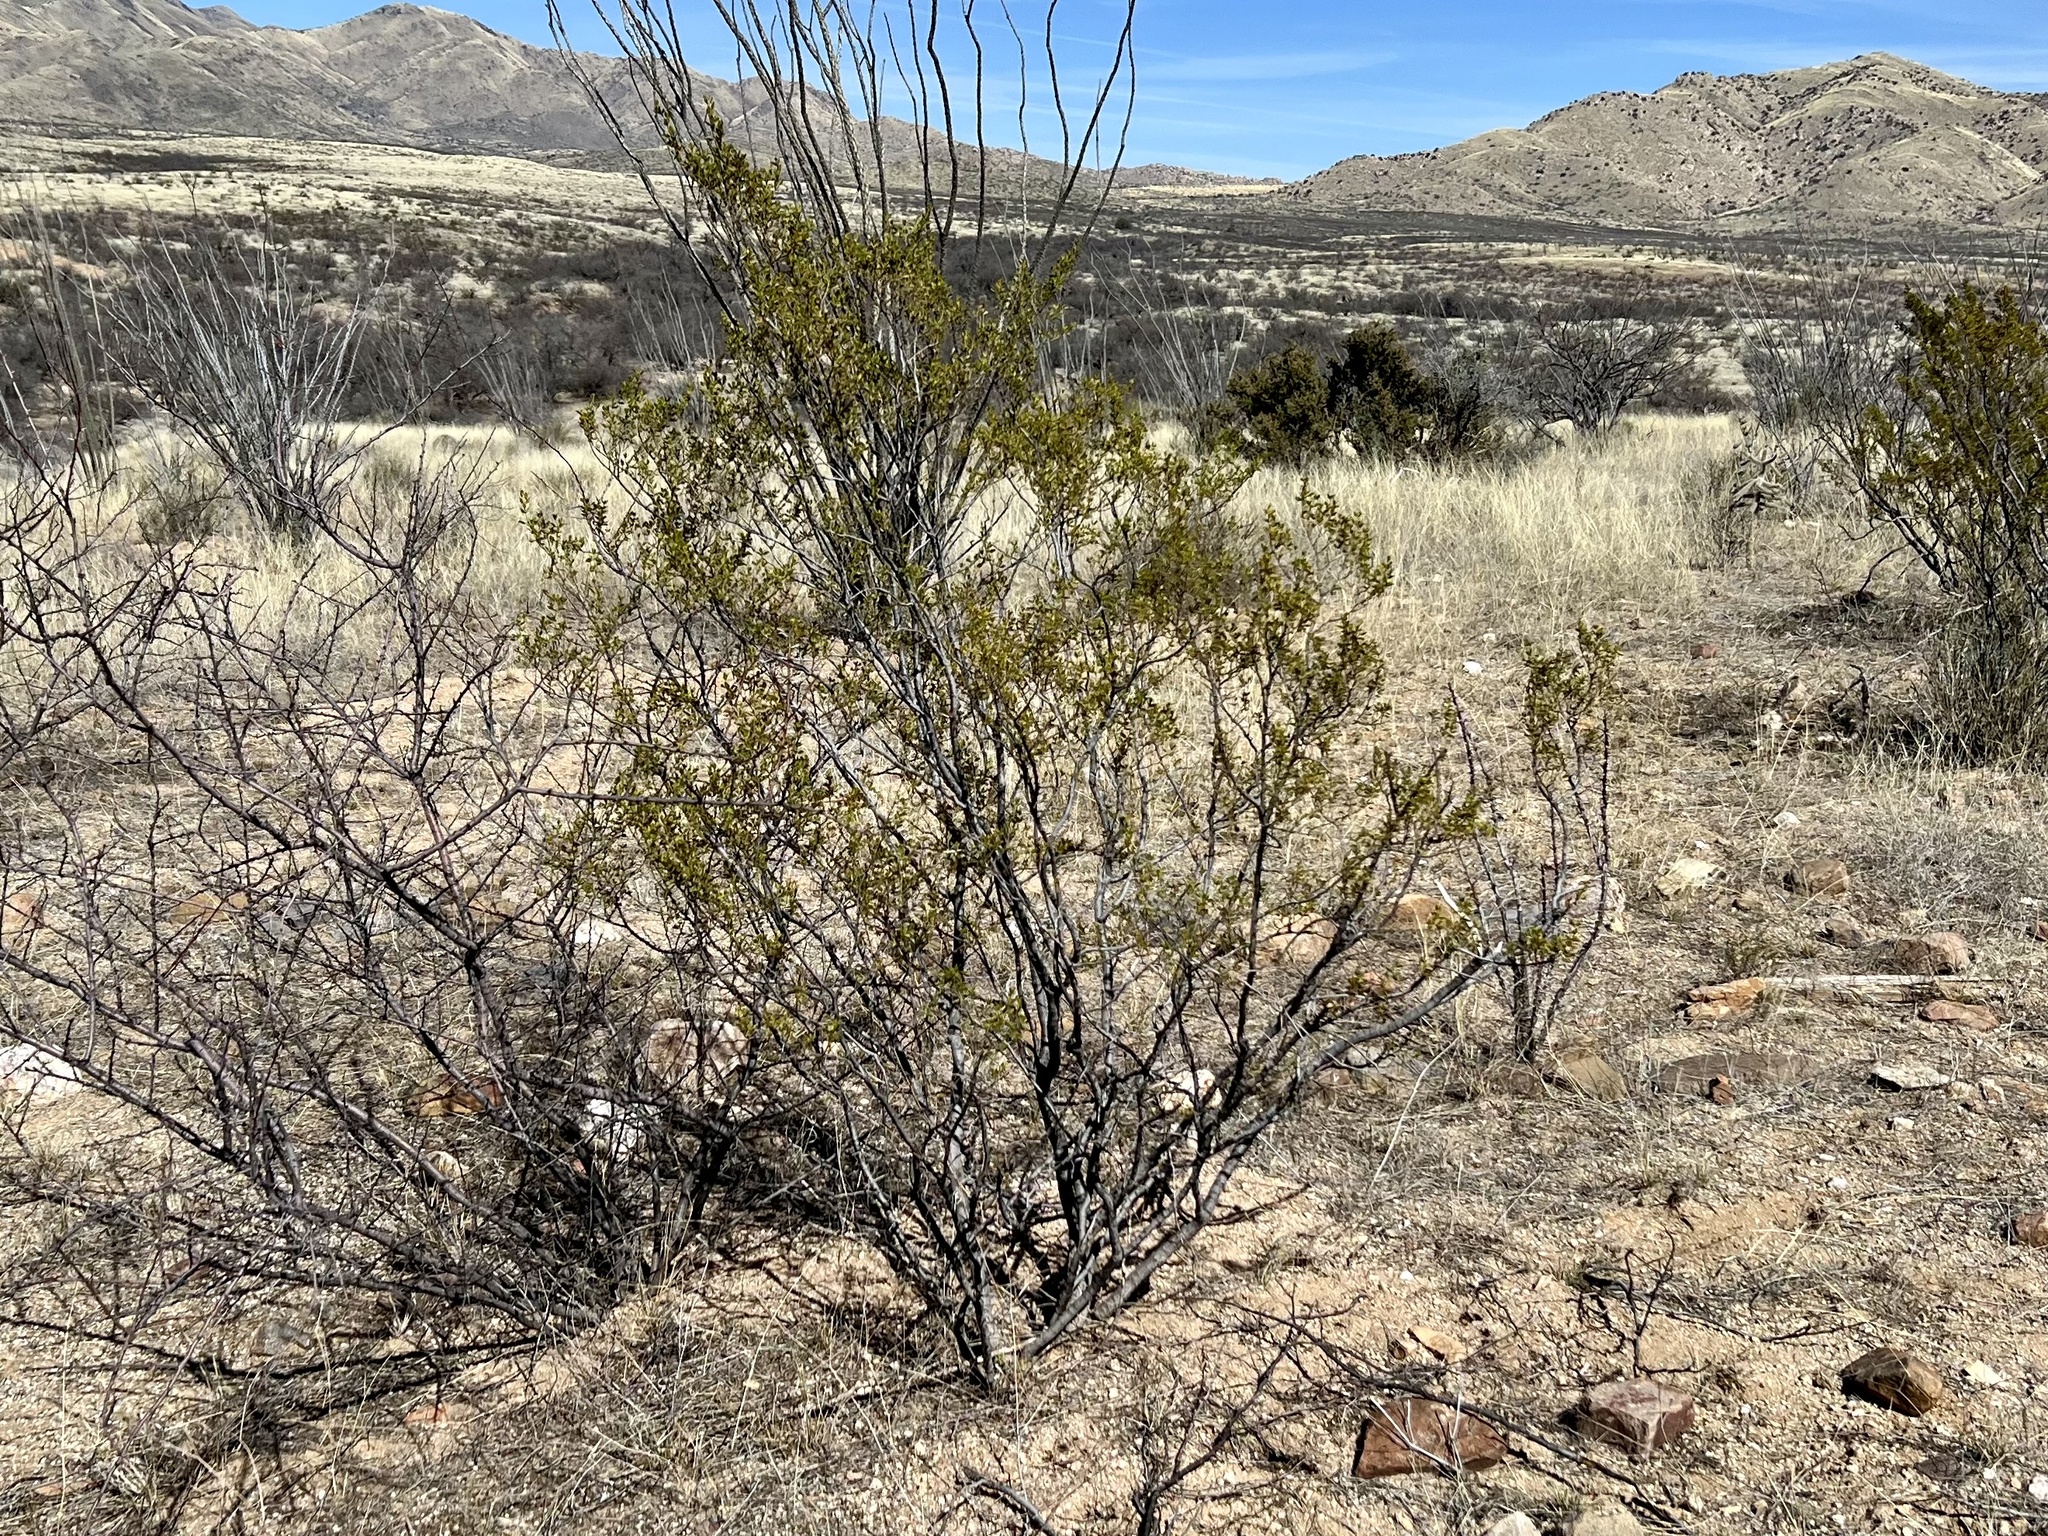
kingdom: Plantae
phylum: Tracheophyta
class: Magnoliopsida
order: Zygophyllales
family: Zygophyllaceae
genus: Larrea
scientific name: Larrea tridentata
